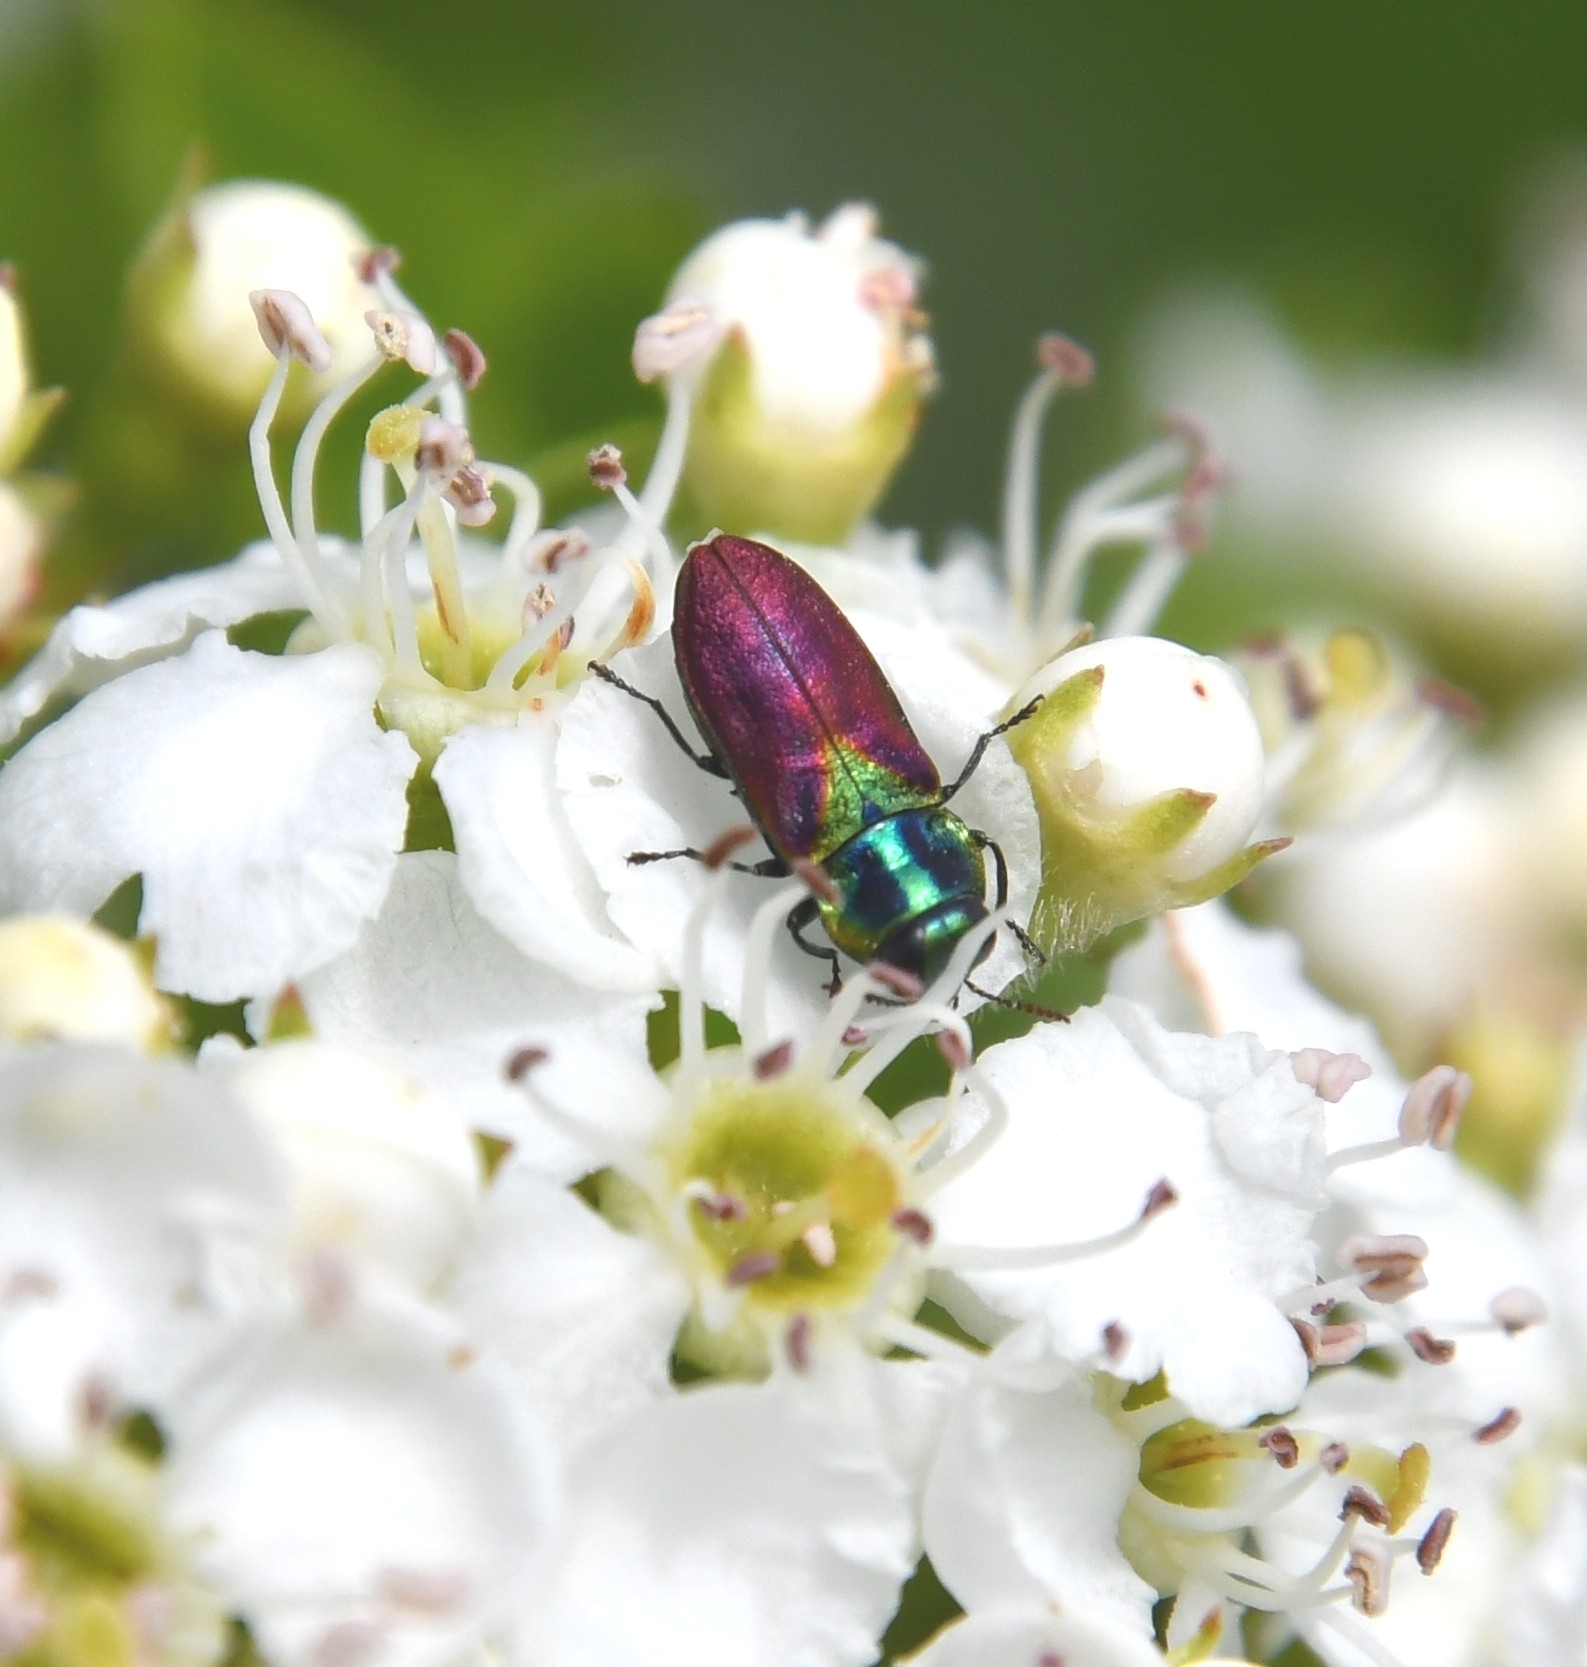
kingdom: Animalia
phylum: Arthropoda
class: Insecta
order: Coleoptera
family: Buprestidae
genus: Anthaxia
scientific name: Anthaxia bicolor
